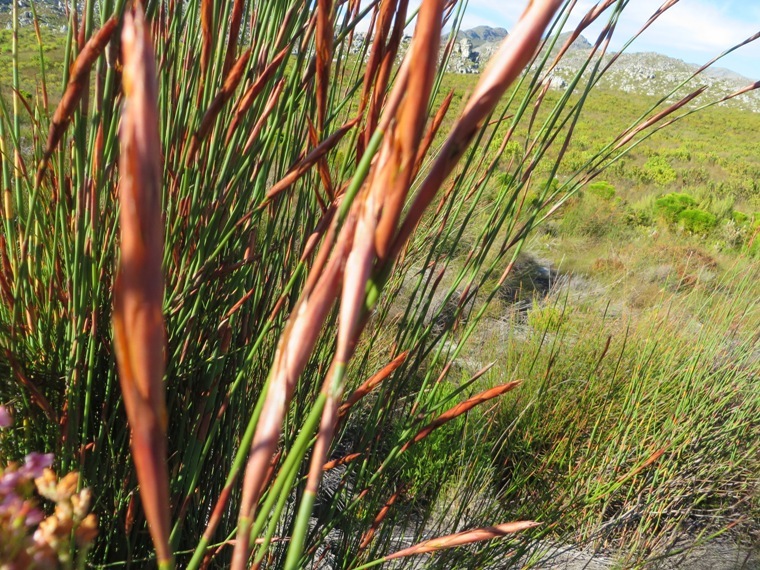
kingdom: Plantae
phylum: Tracheophyta
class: Liliopsida
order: Poales
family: Restionaceae
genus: Restio
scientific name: Restio dispar
